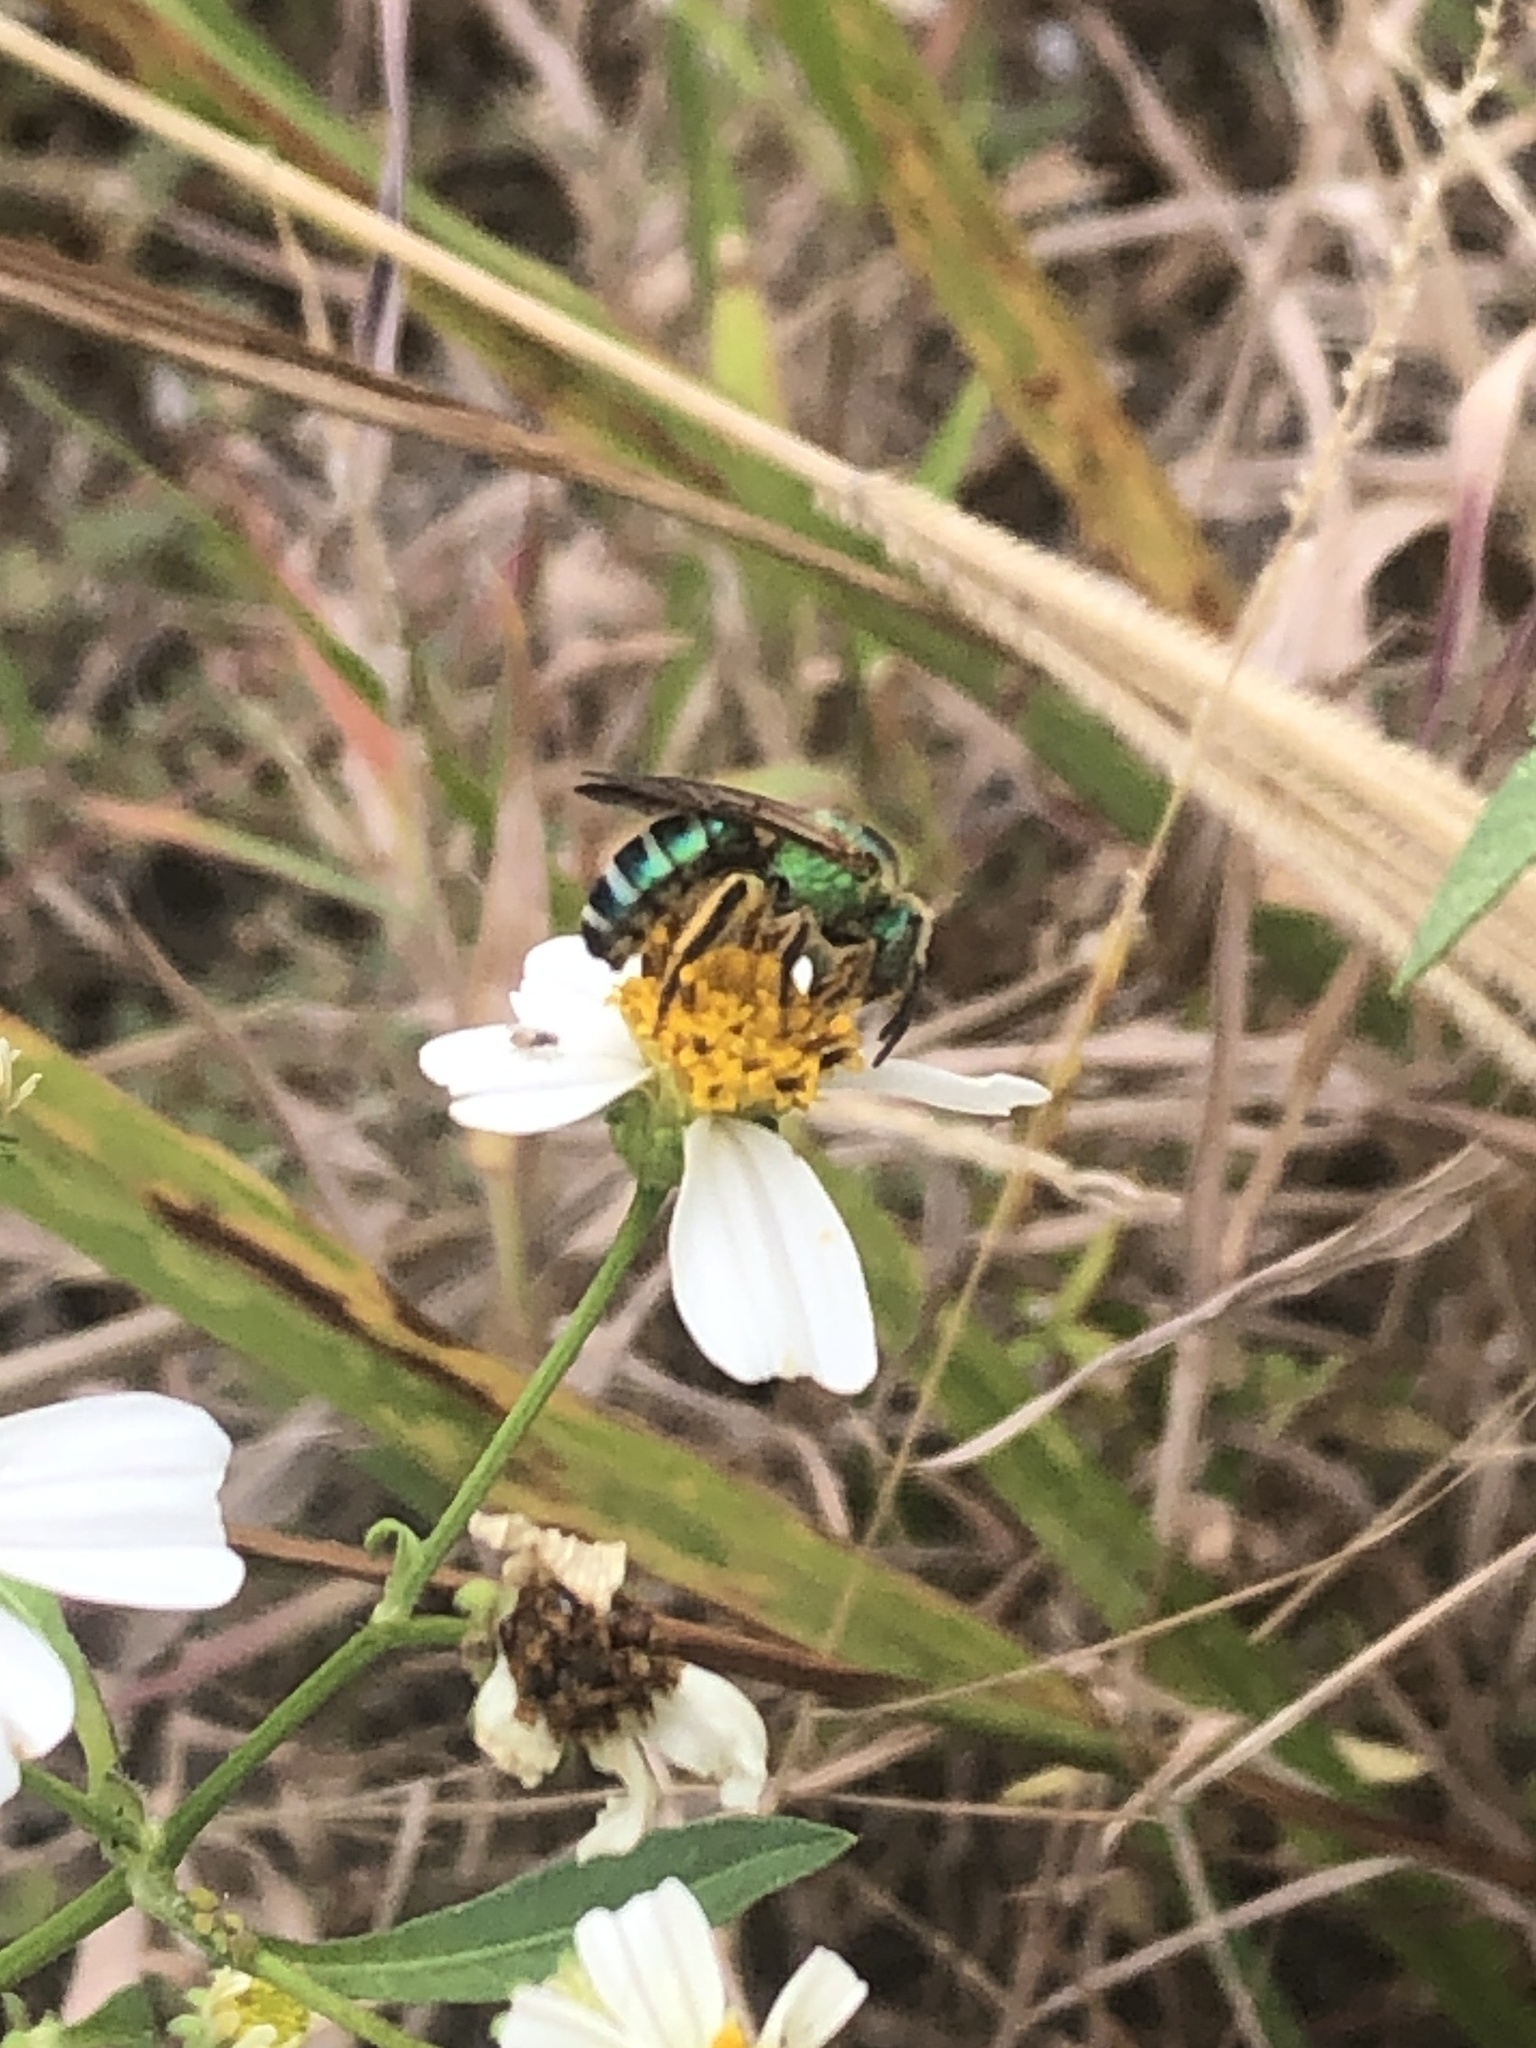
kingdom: Animalia
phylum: Arthropoda
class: Insecta
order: Hymenoptera
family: Halictidae
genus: Agapostemon
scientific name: Agapostemon splendens
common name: Brown-winged striped sweat bee
